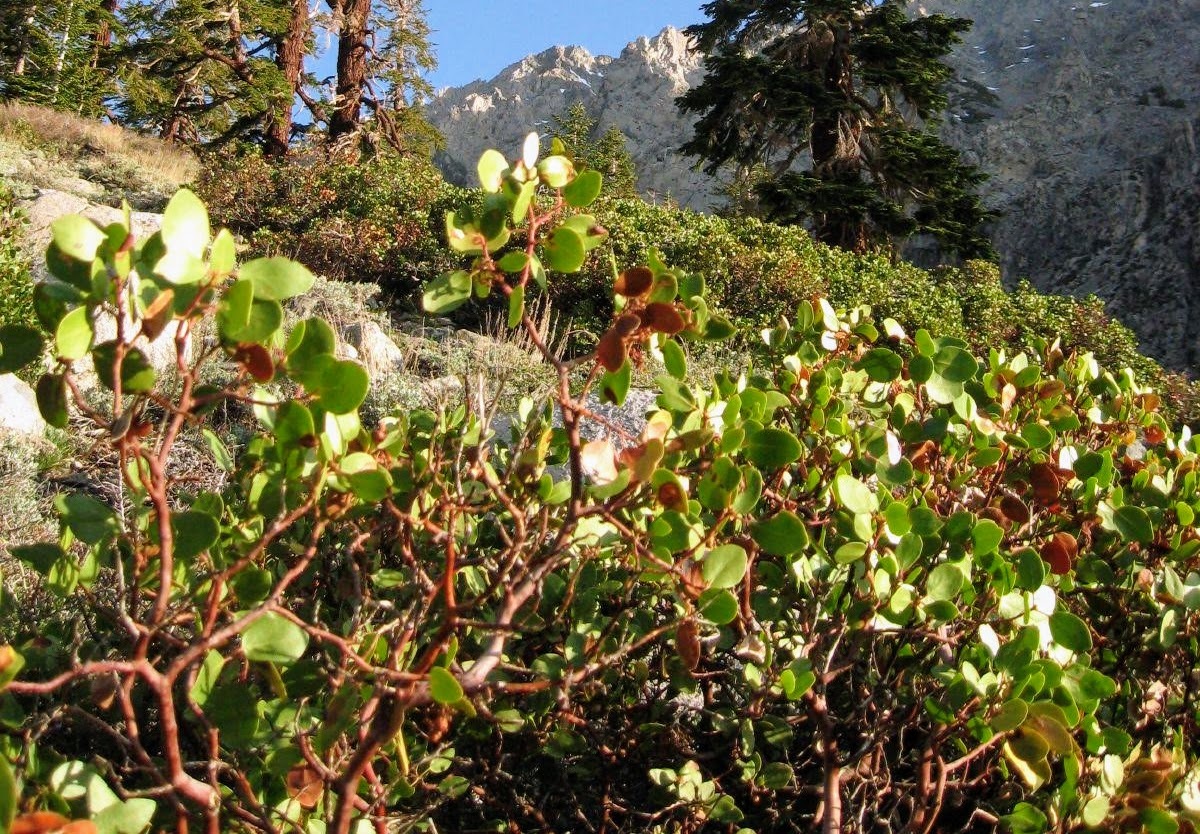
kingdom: Plantae
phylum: Tracheophyta
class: Magnoliopsida
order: Ericales
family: Ericaceae
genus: Arctostaphylos
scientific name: Arctostaphylos patula
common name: Green-leaf manzanita
